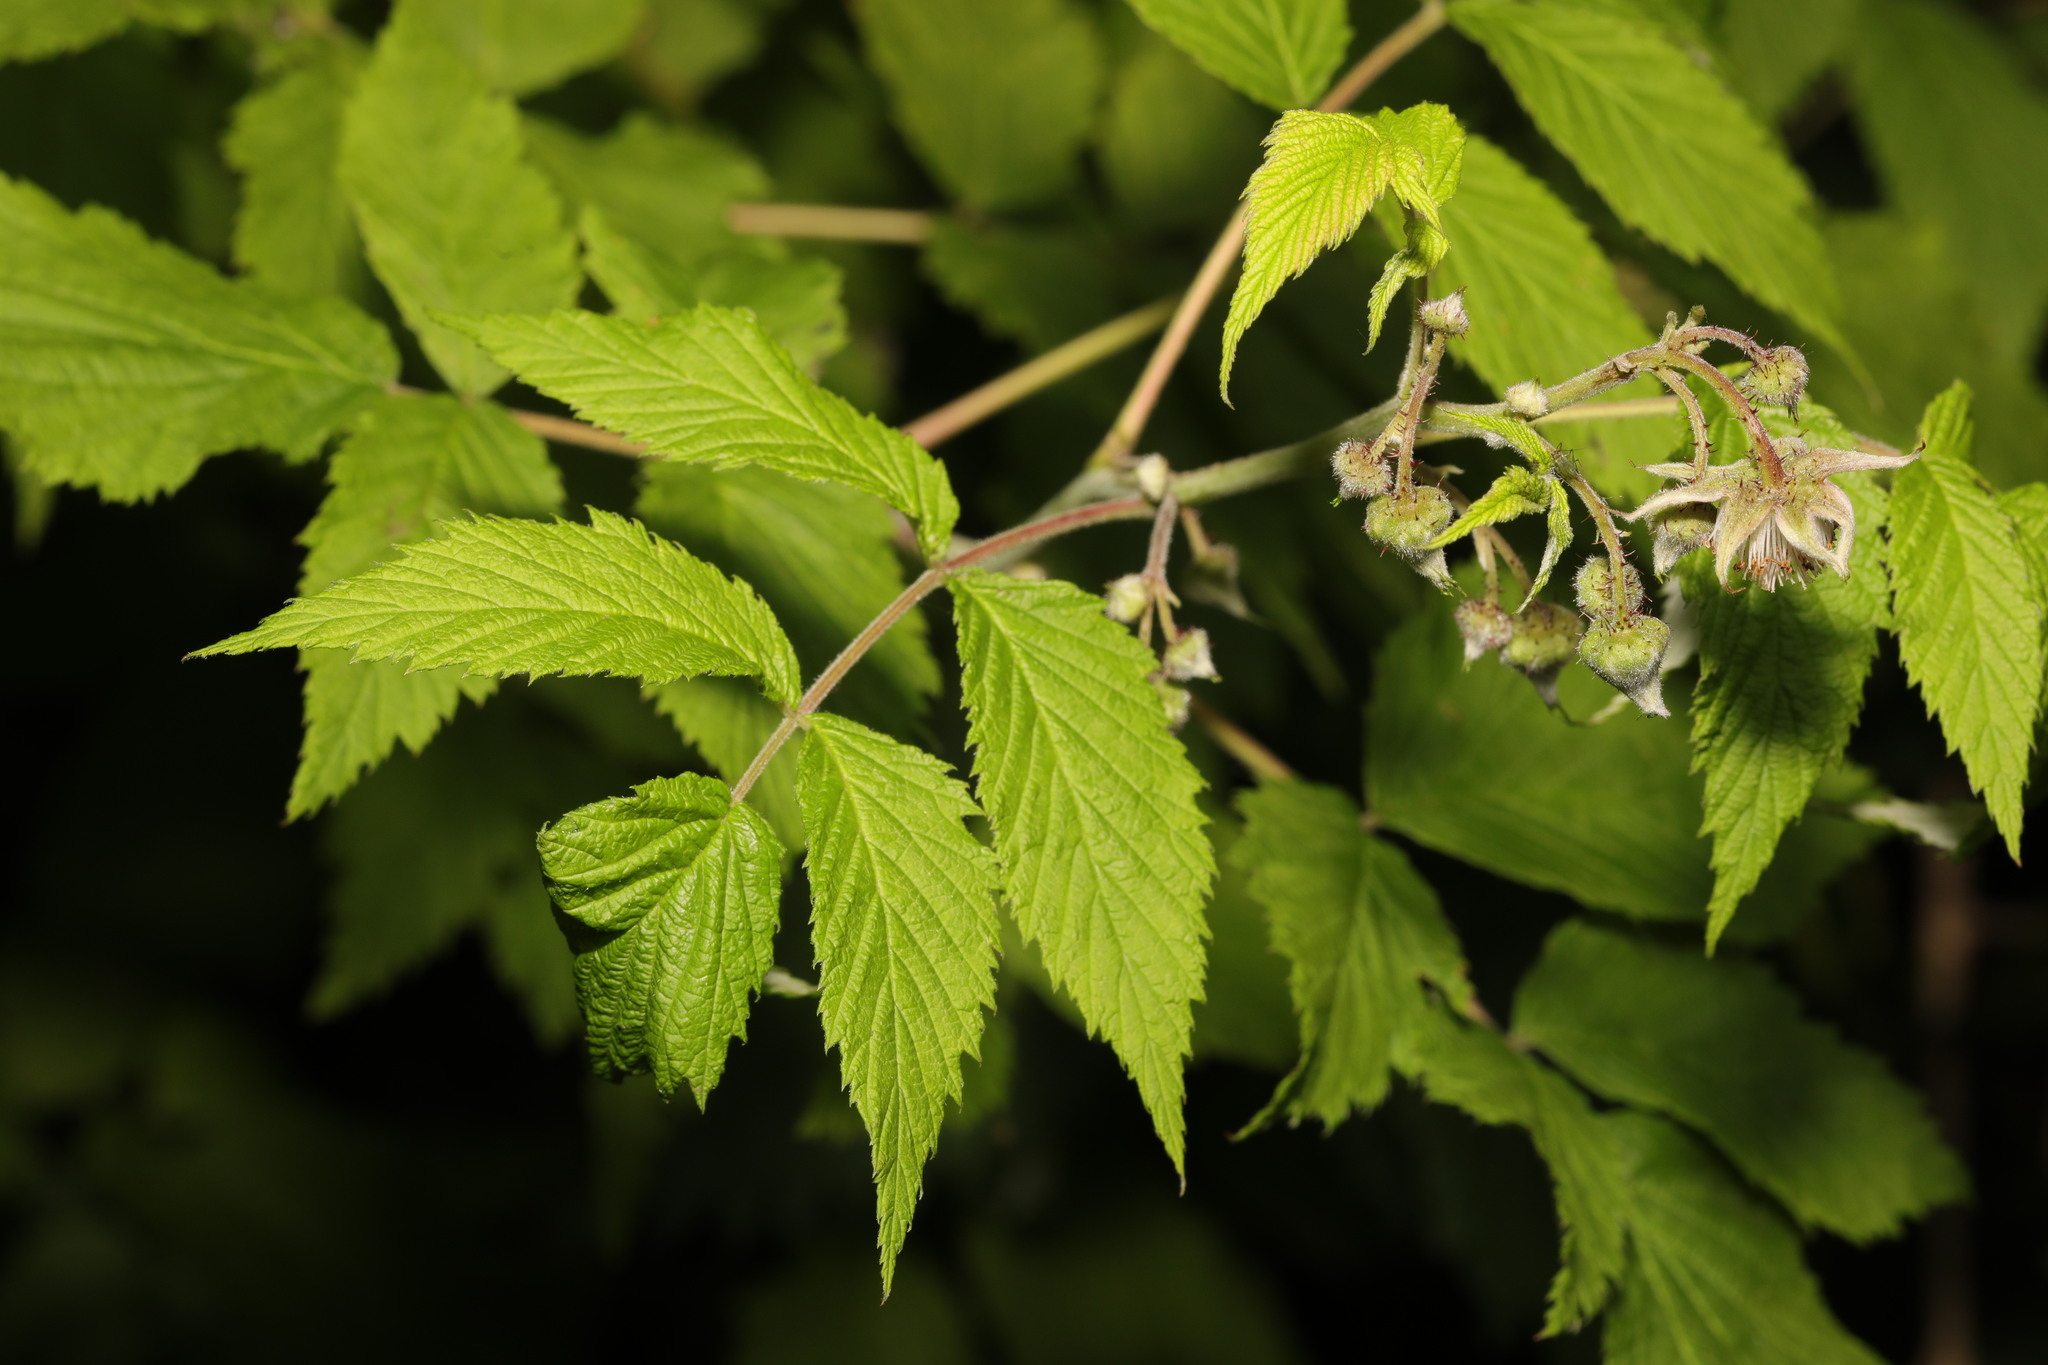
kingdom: Plantae
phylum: Tracheophyta
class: Magnoliopsida
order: Rosales
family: Rosaceae
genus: Rubus
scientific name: Rubus idaeus
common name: Raspberry
